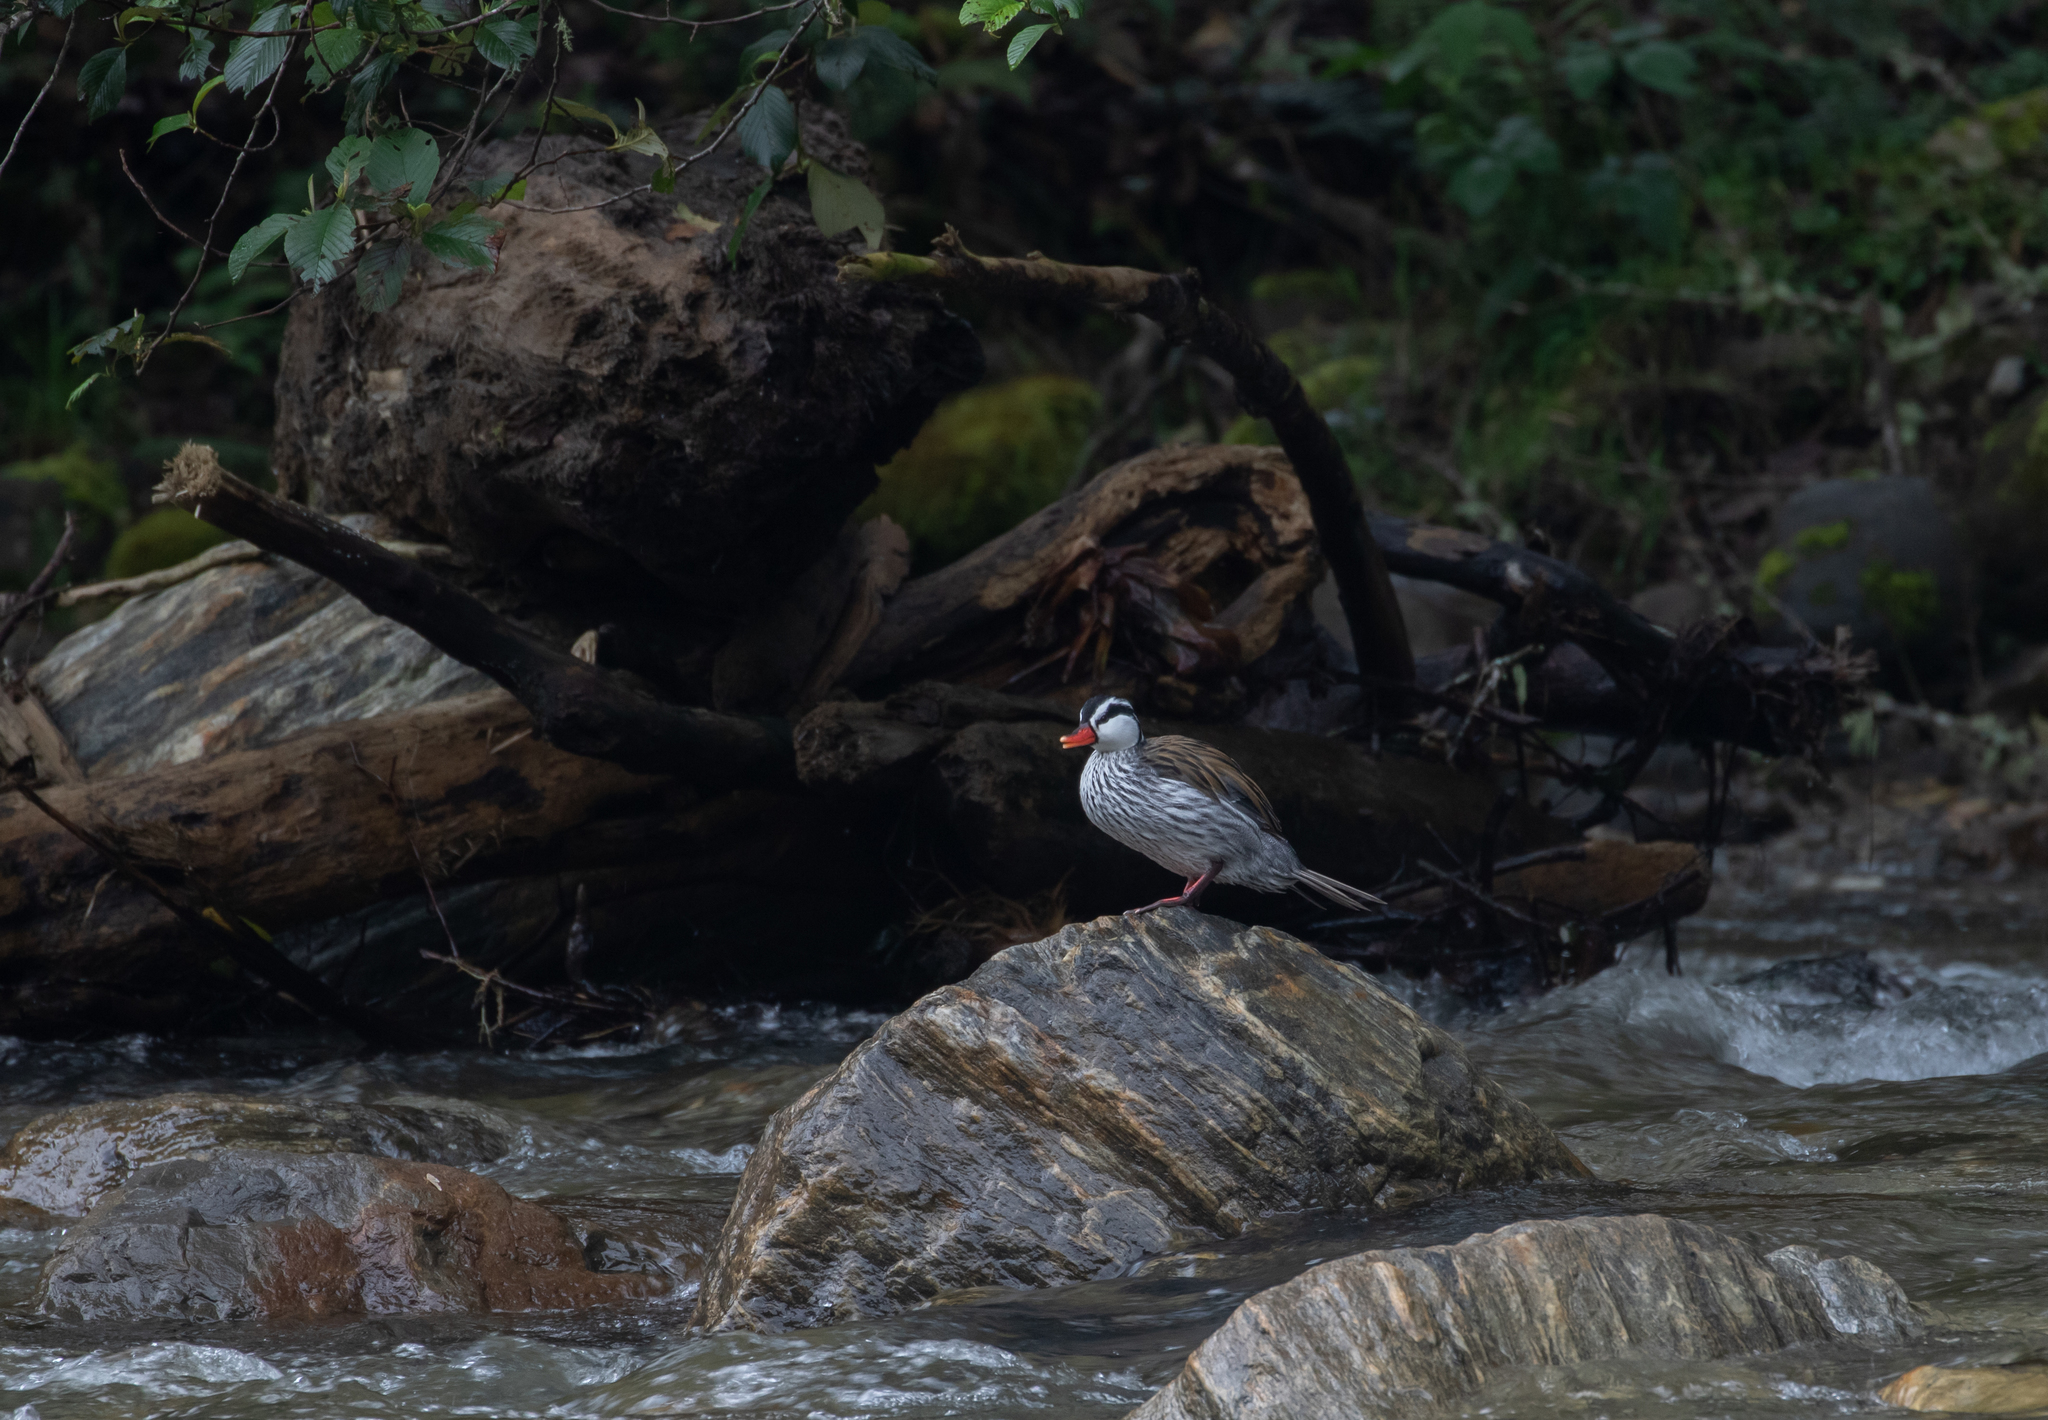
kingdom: Animalia
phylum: Chordata
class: Aves
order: Anseriformes
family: Anatidae
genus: Merganetta
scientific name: Merganetta armata
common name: Torrent duck
